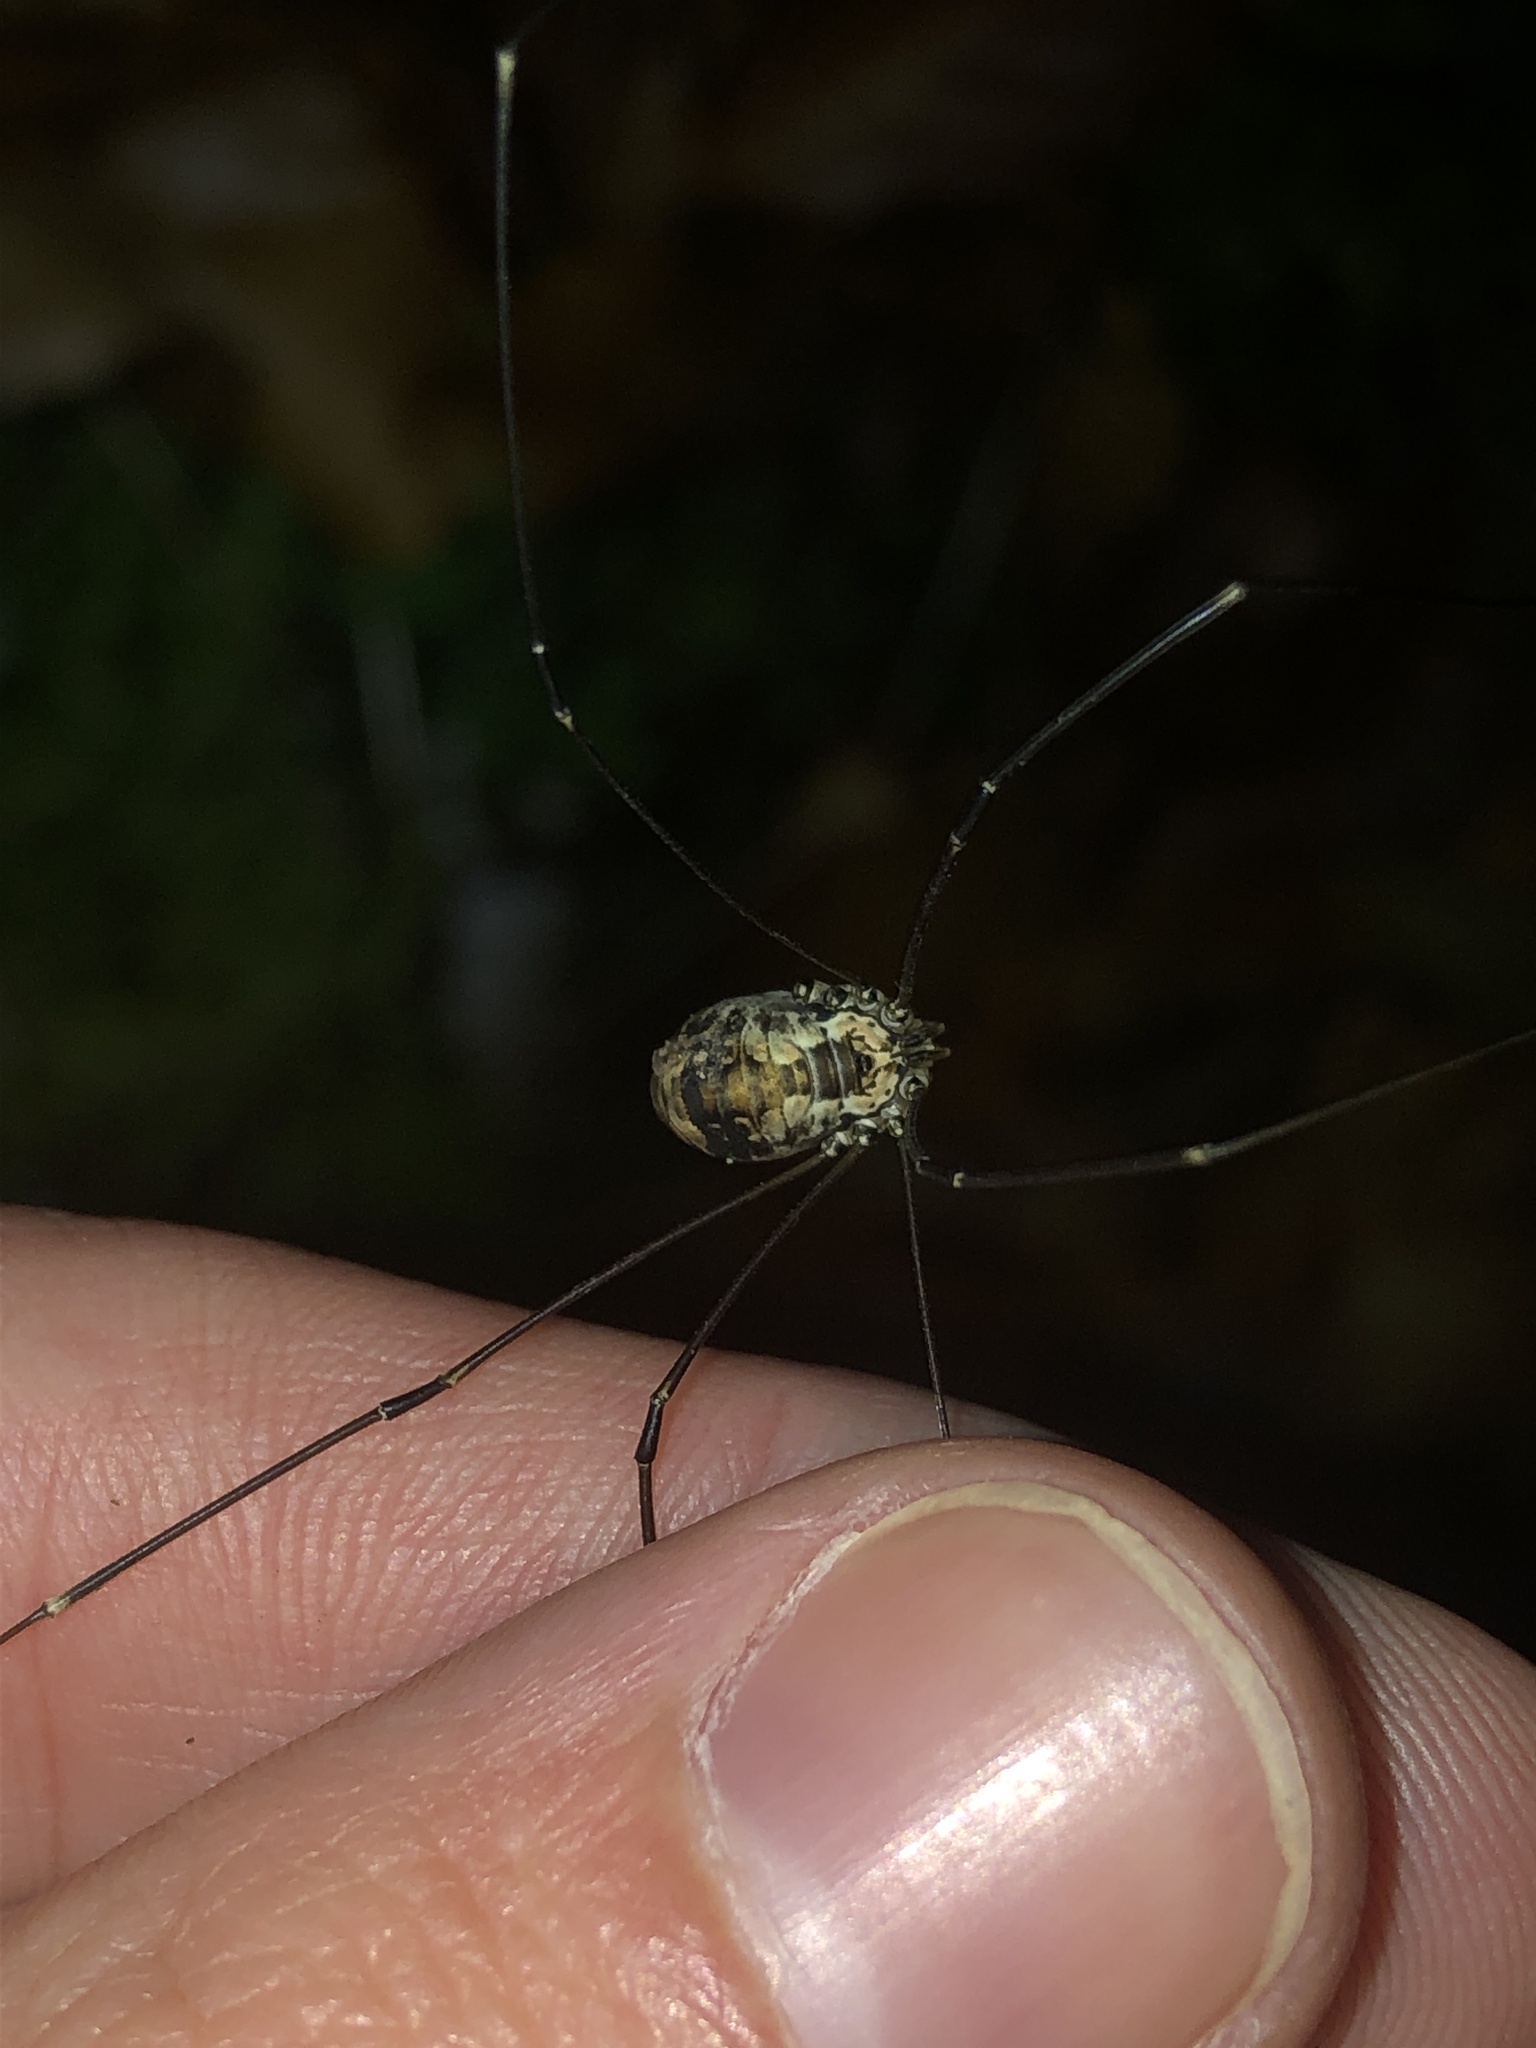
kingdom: Animalia
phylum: Arthropoda
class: Arachnida
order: Opiliones
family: Sclerosomatidae
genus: Leiobunum
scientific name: Leiobunum limbatum
